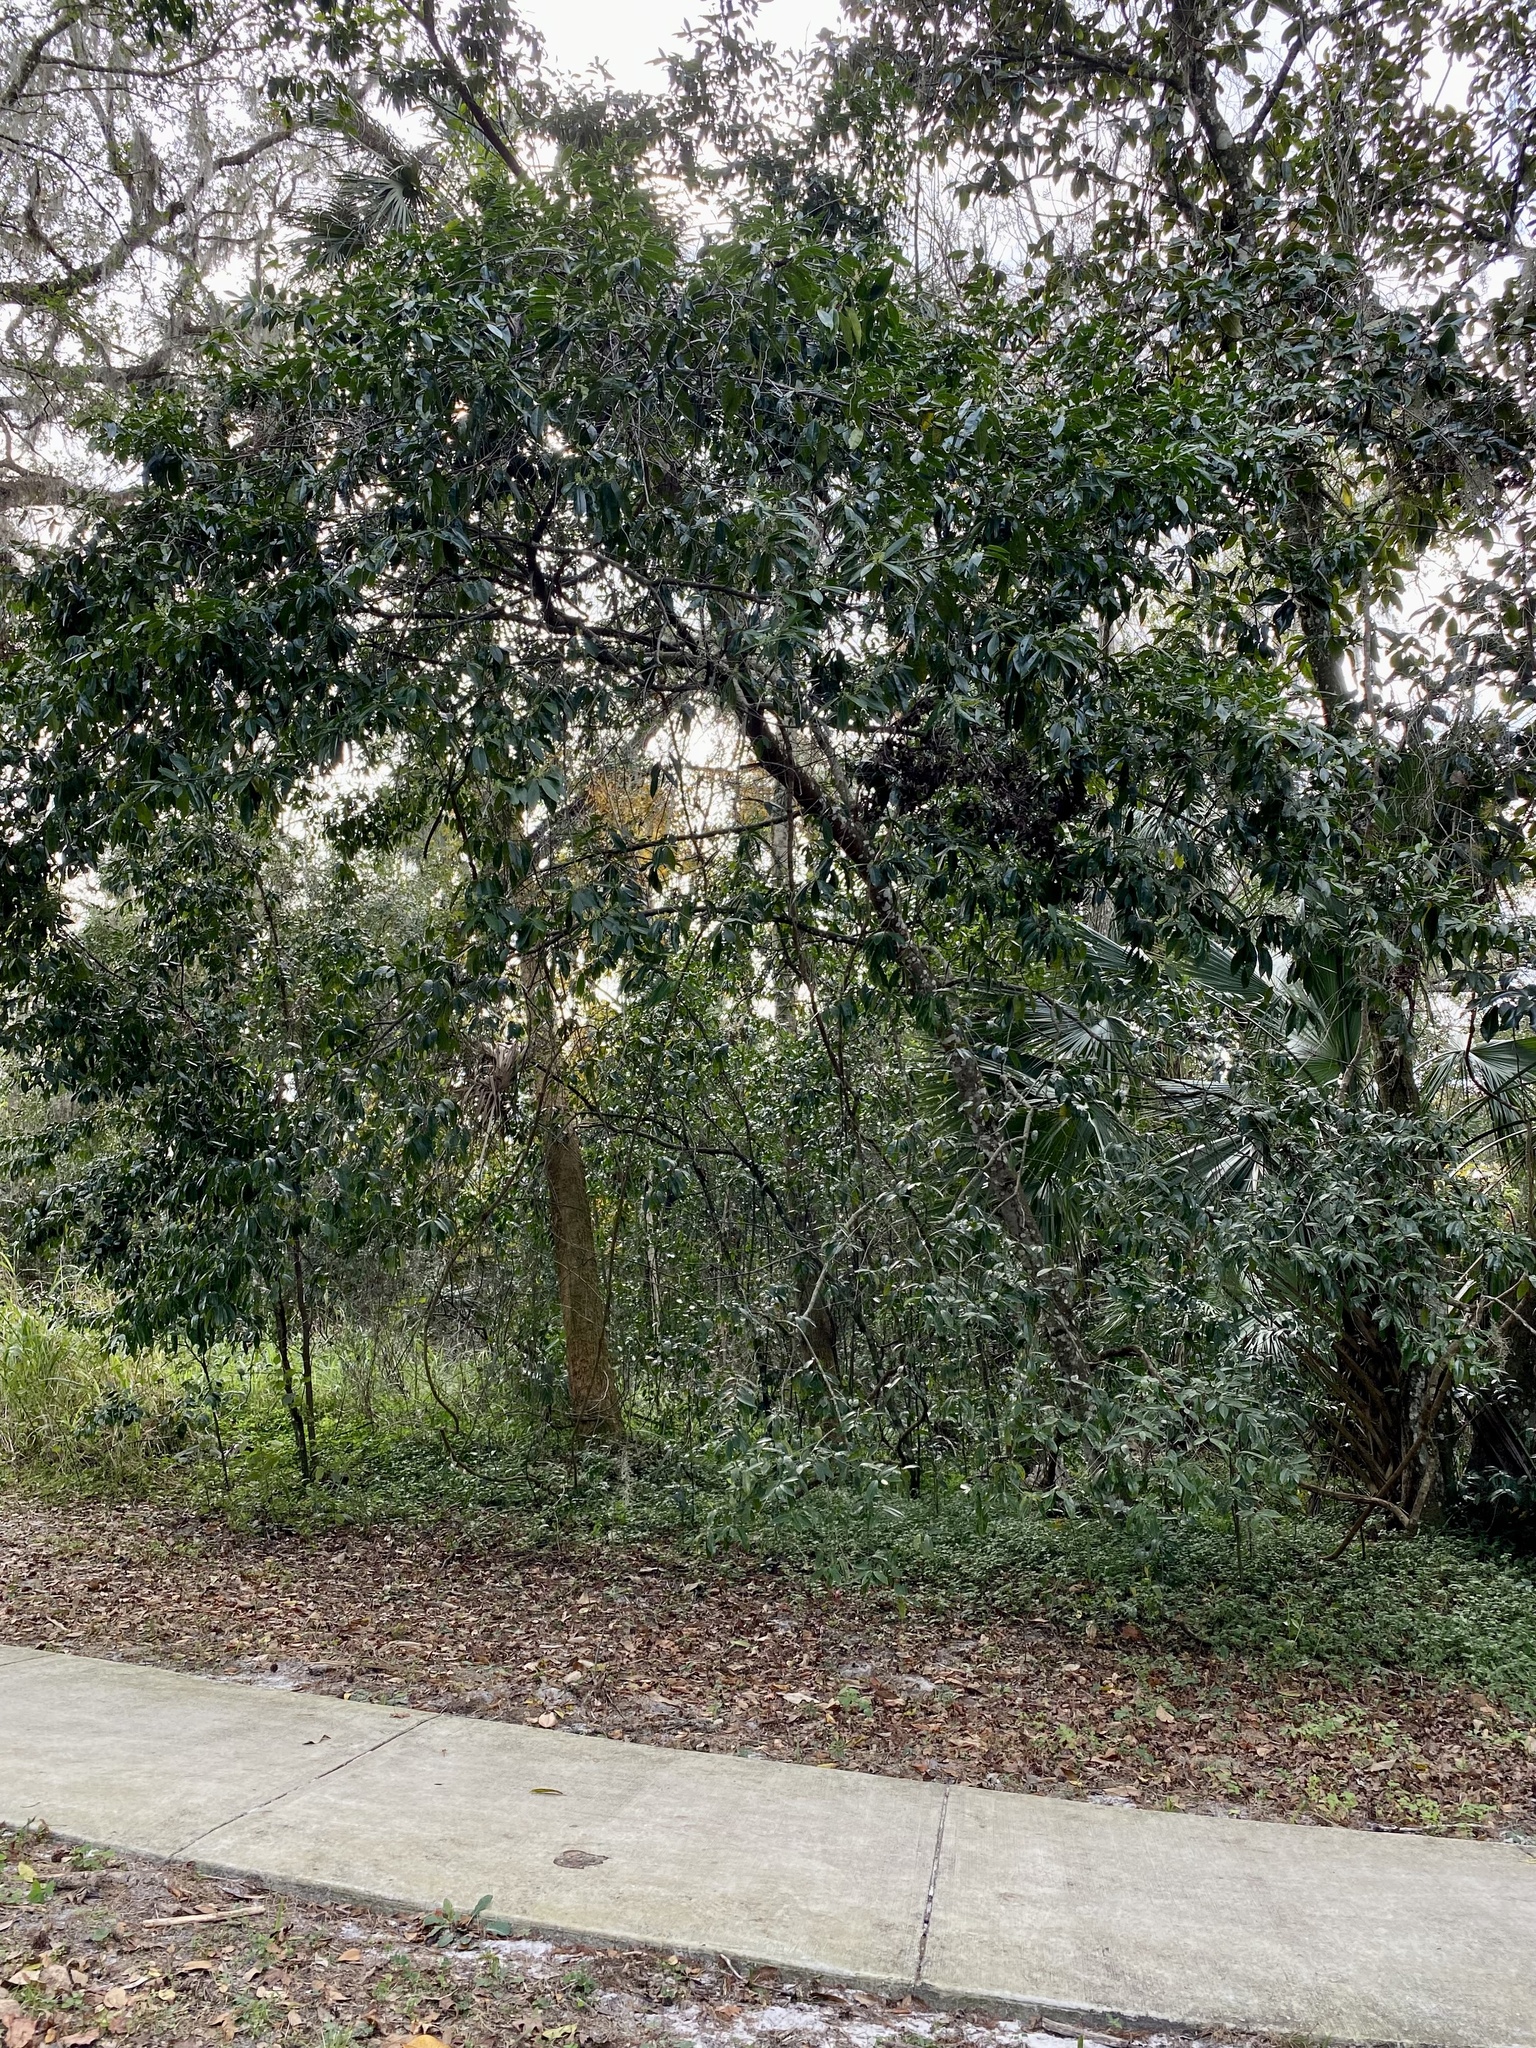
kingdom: Plantae
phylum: Tracheophyta
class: Magnoliopsida
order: Rosales
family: Rosaceae
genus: Prunus
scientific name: Prunus caroliniana
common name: Carolina laurel cherry
